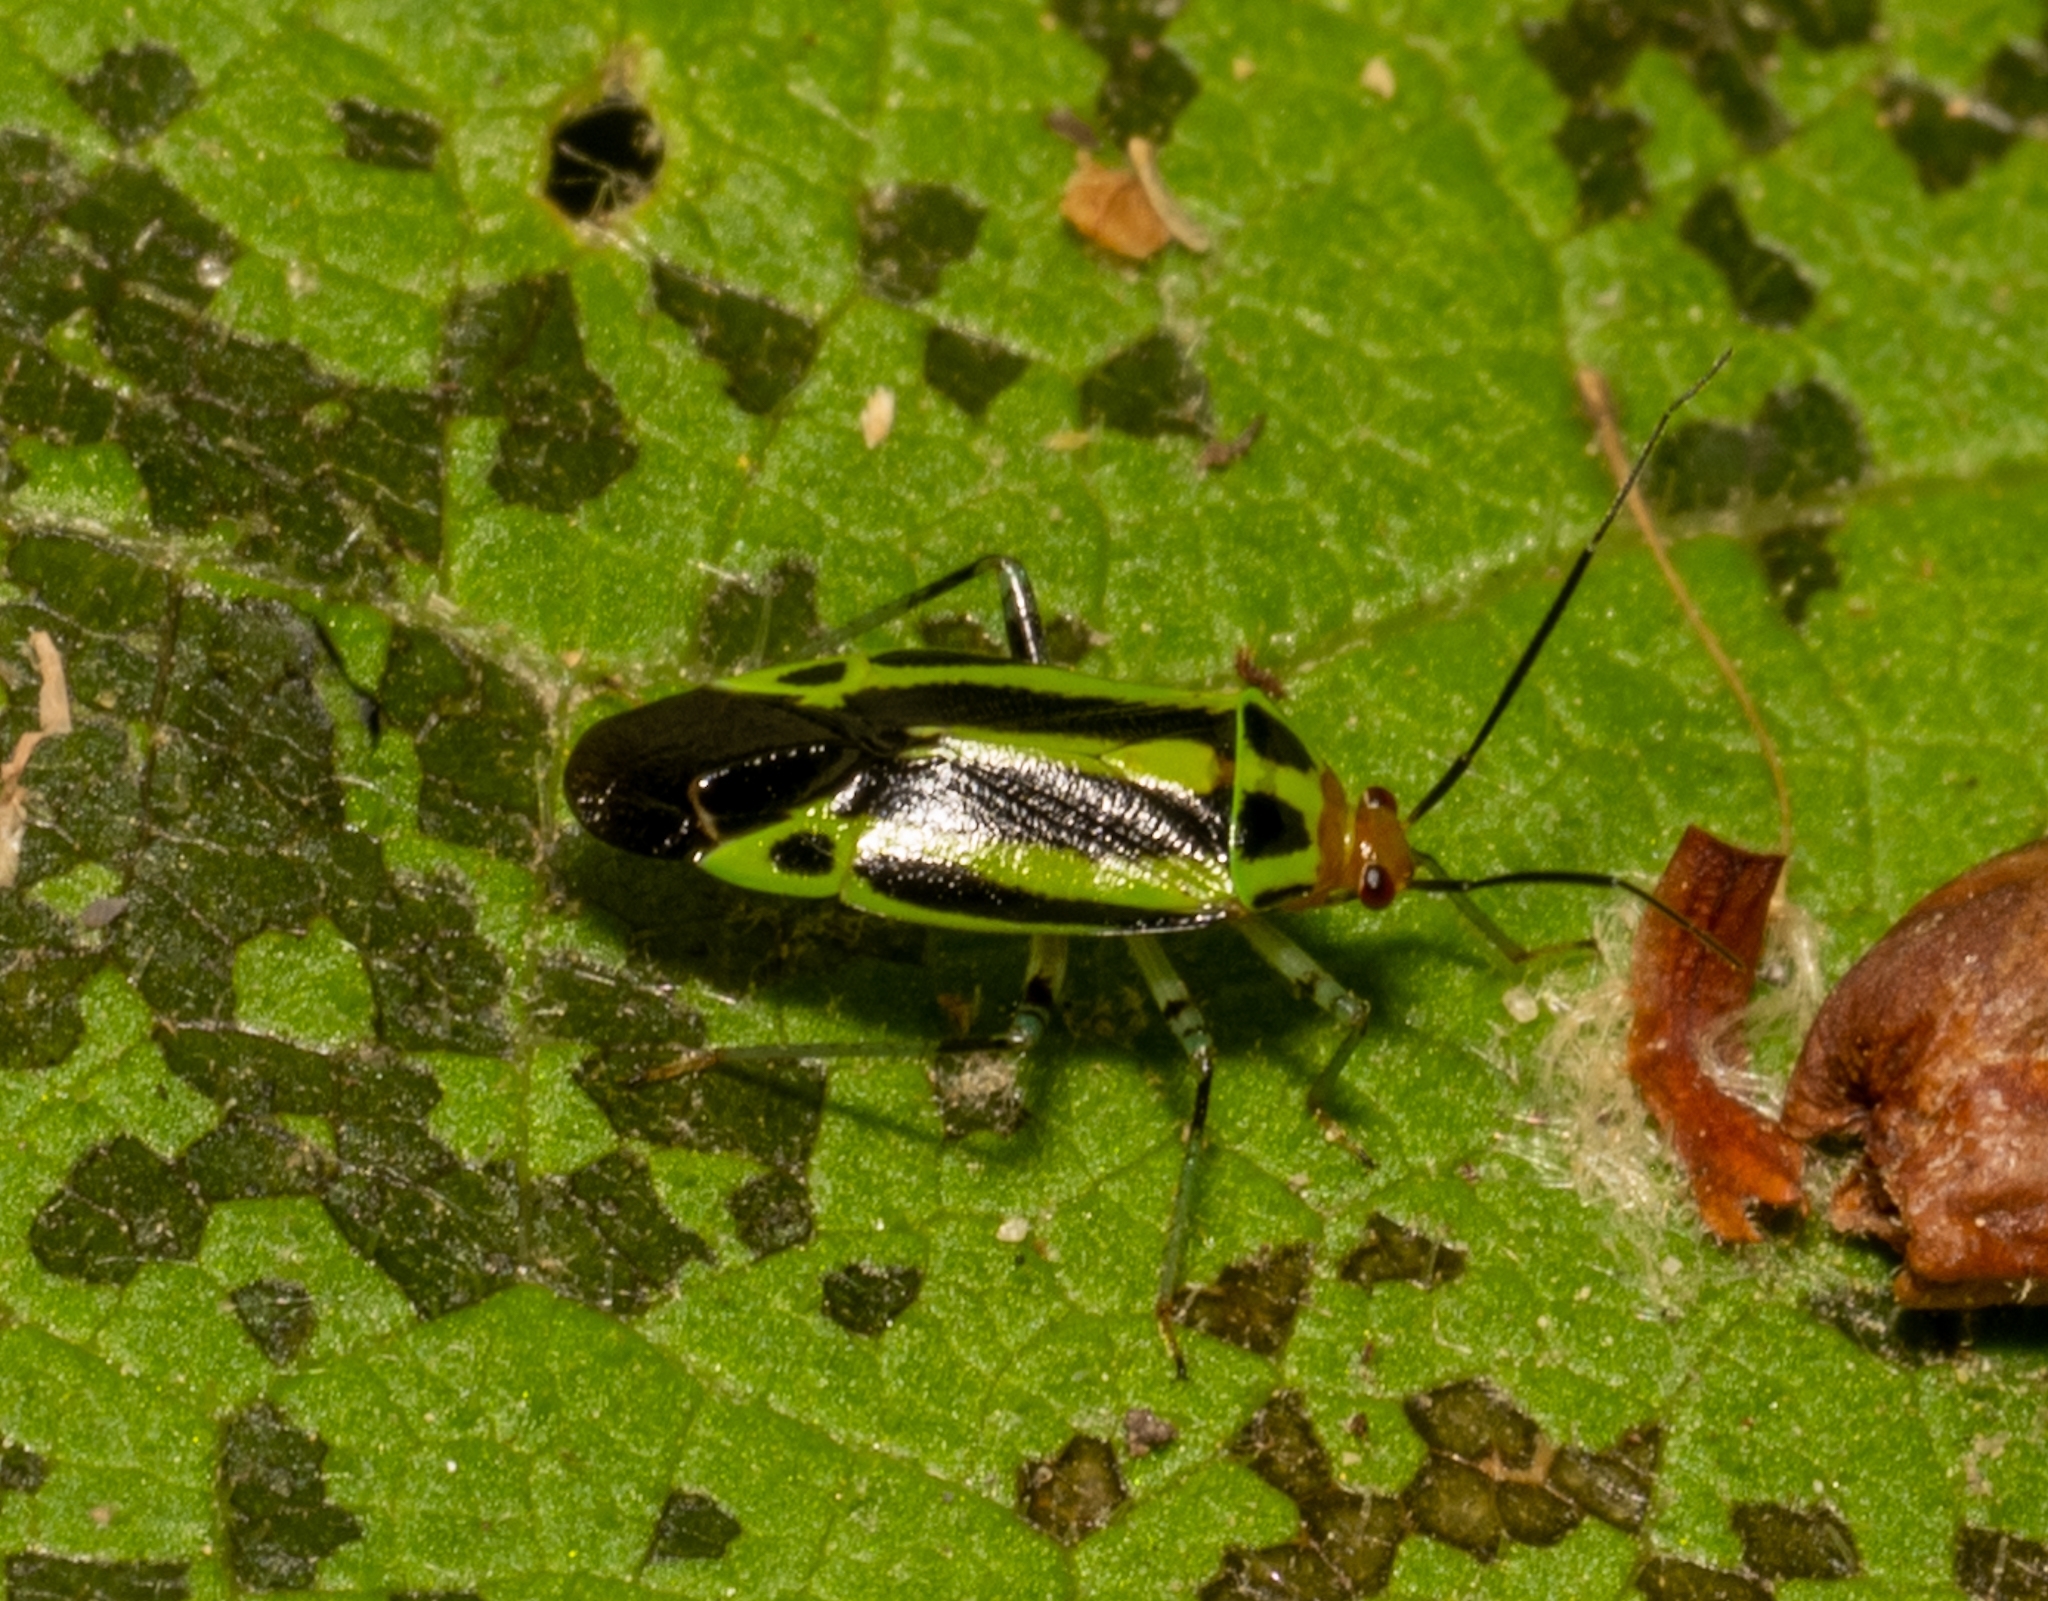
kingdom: Animalia
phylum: Arthropoda
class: Insecta
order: Hemiptera
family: Miridae
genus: Poecilocapsus
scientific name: Poecilocapsus lineatus
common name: Four-lined plant bug
